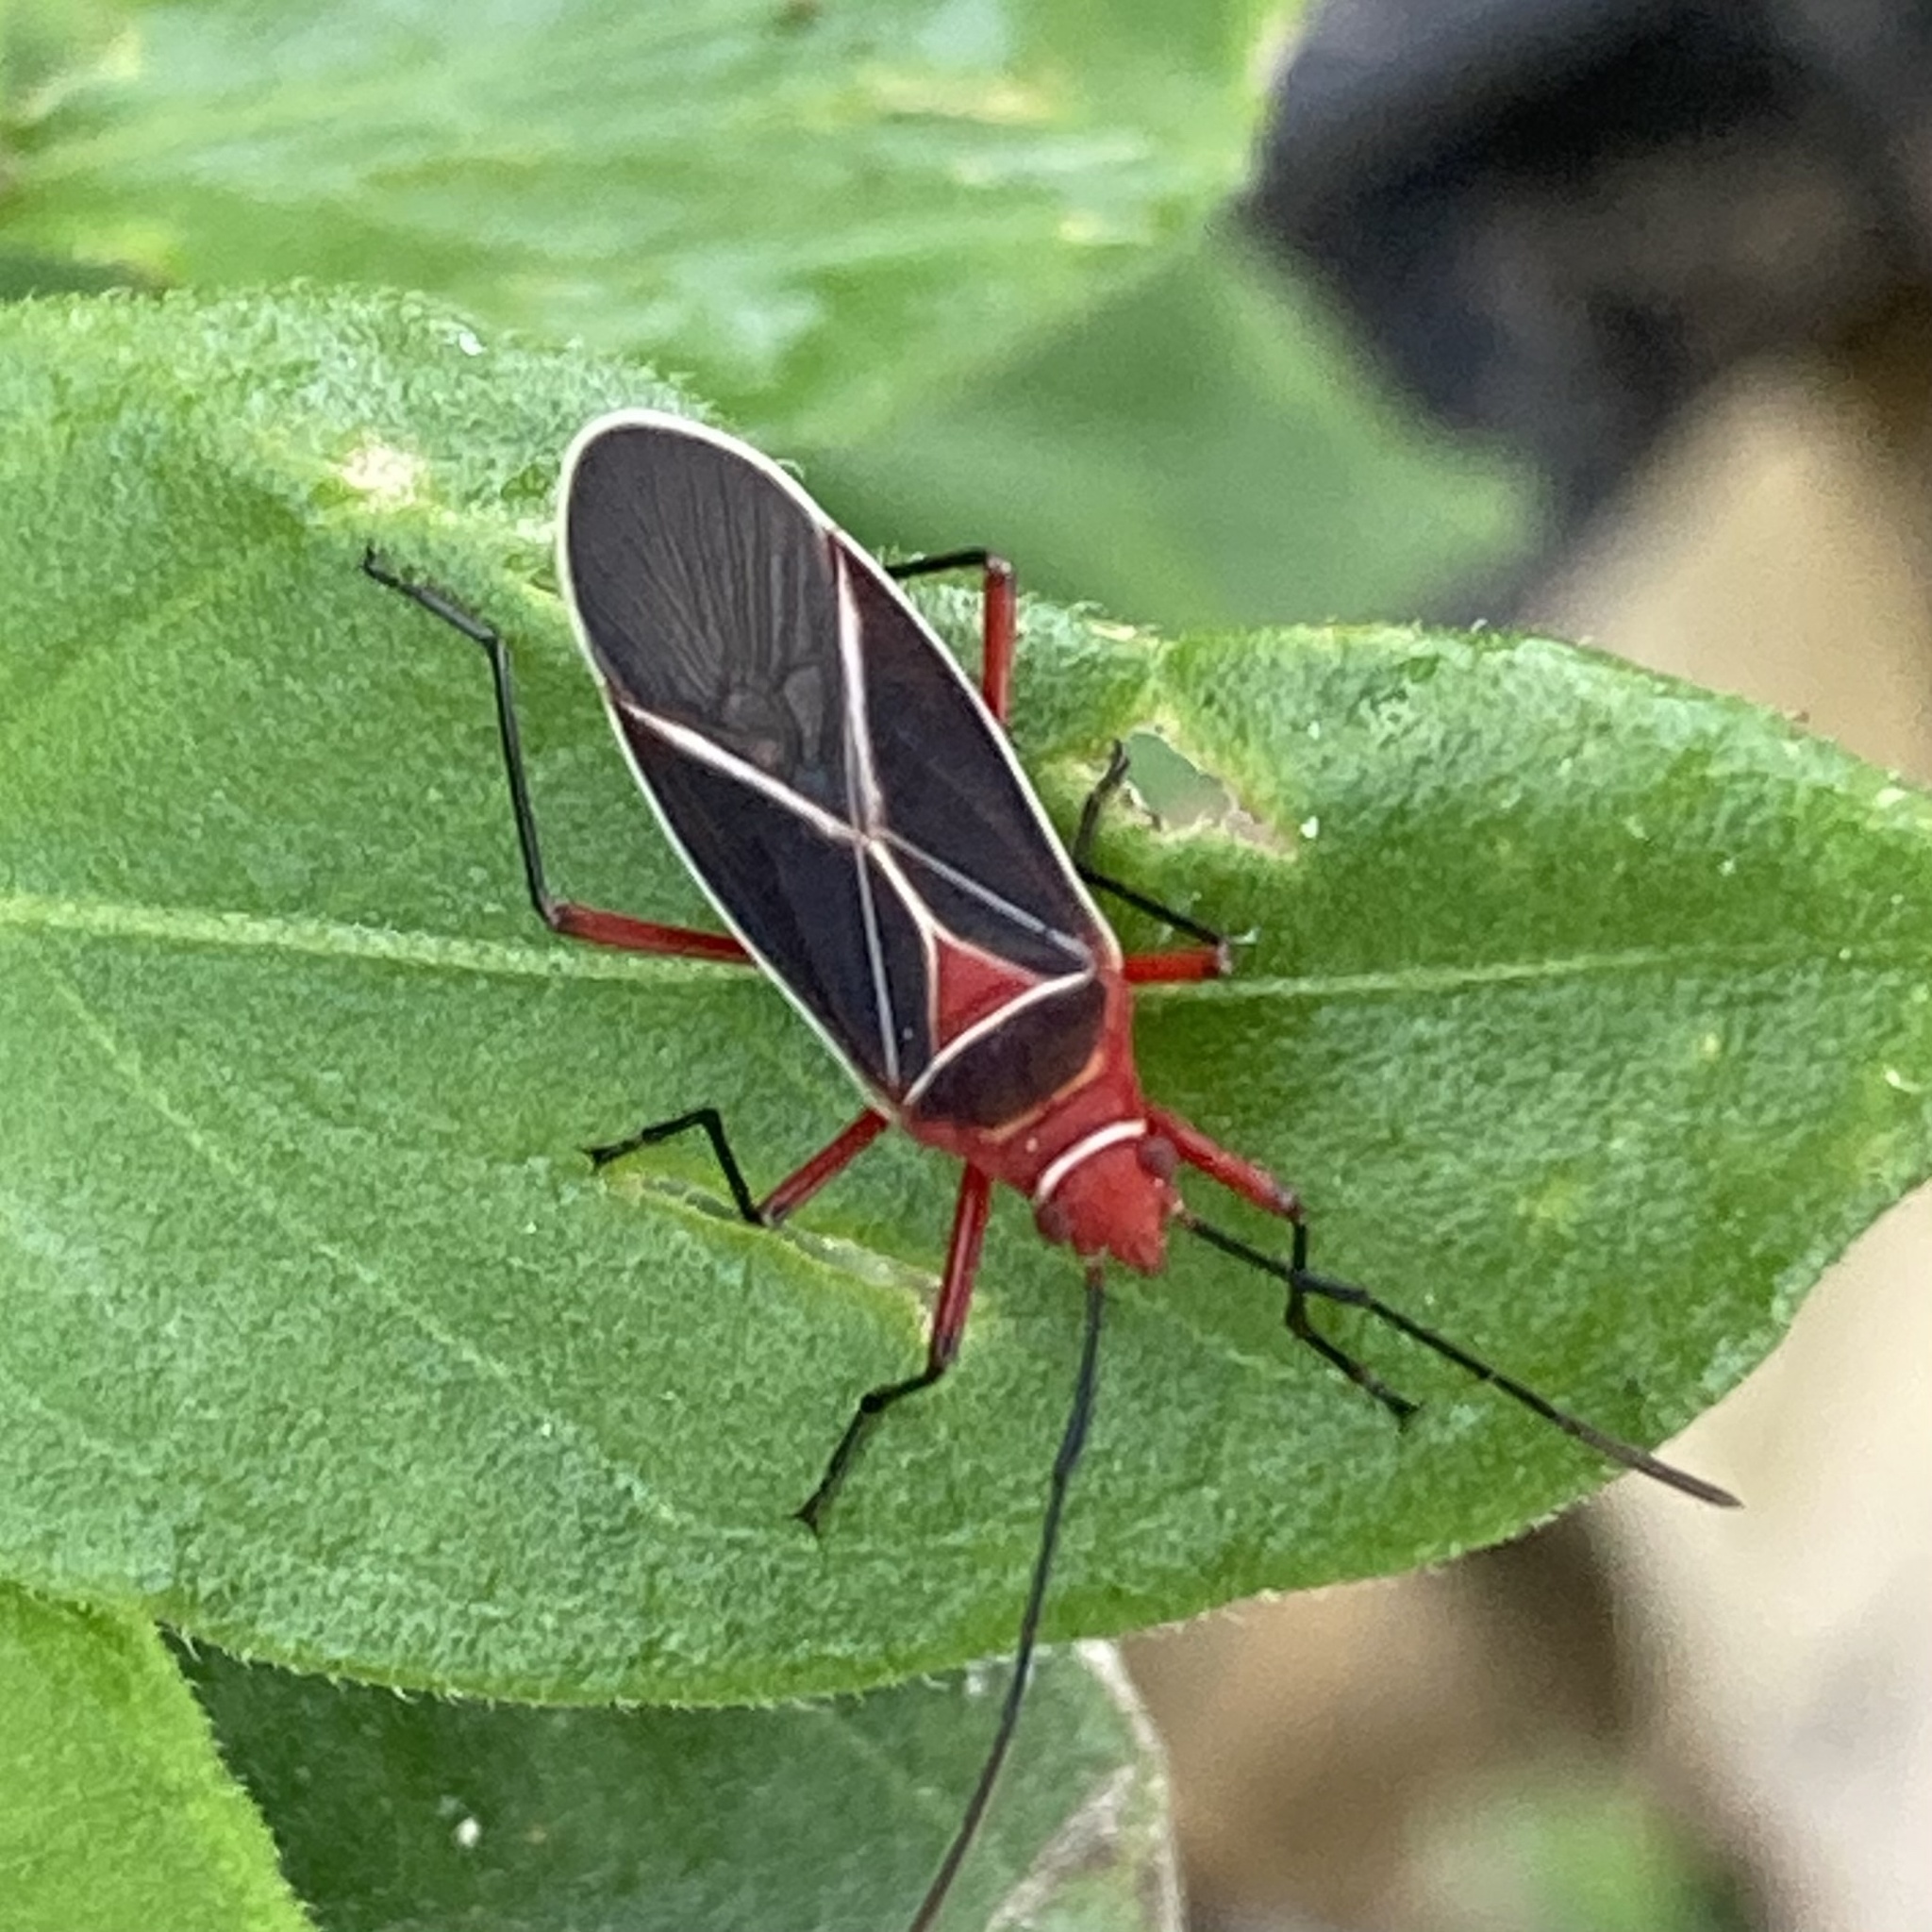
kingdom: Animalia
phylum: Arthropoda
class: Insecta
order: Hemiptera
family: Pyrrhocoridae
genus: Dysdercus
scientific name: Dysdercus suturellus
